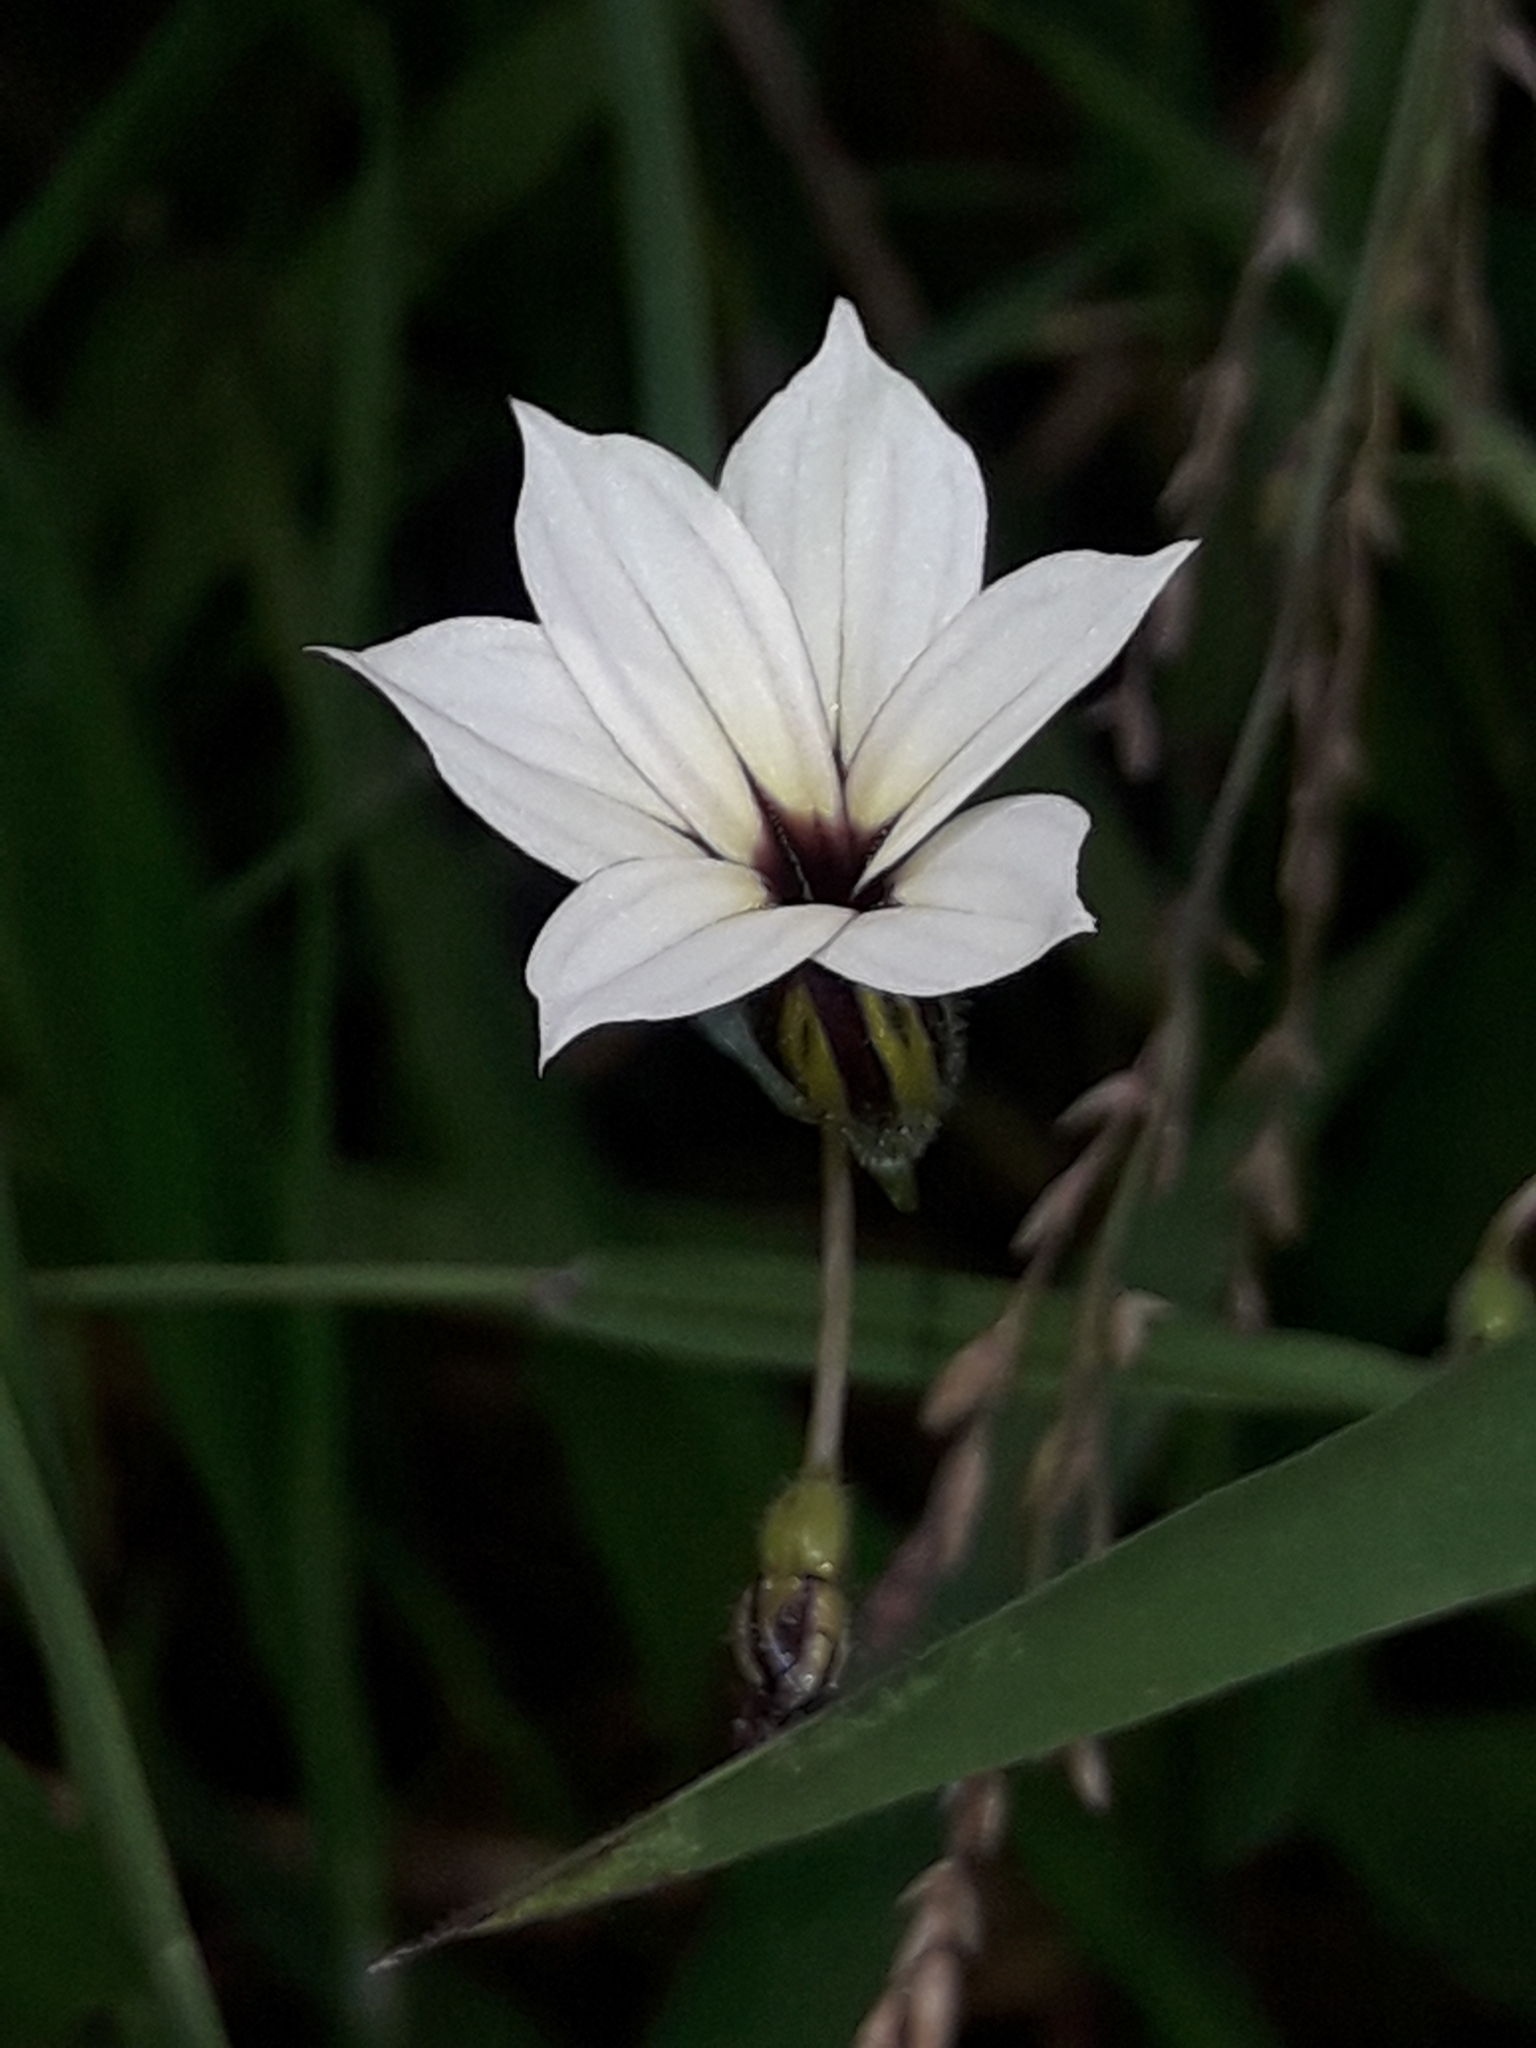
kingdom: Plantae
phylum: Tracheophyta
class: Liliopsida
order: Asparagales
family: Iridaceae
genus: Sisyrinchium
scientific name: Sisyrinchium micranthum
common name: Bermuda pigroot
